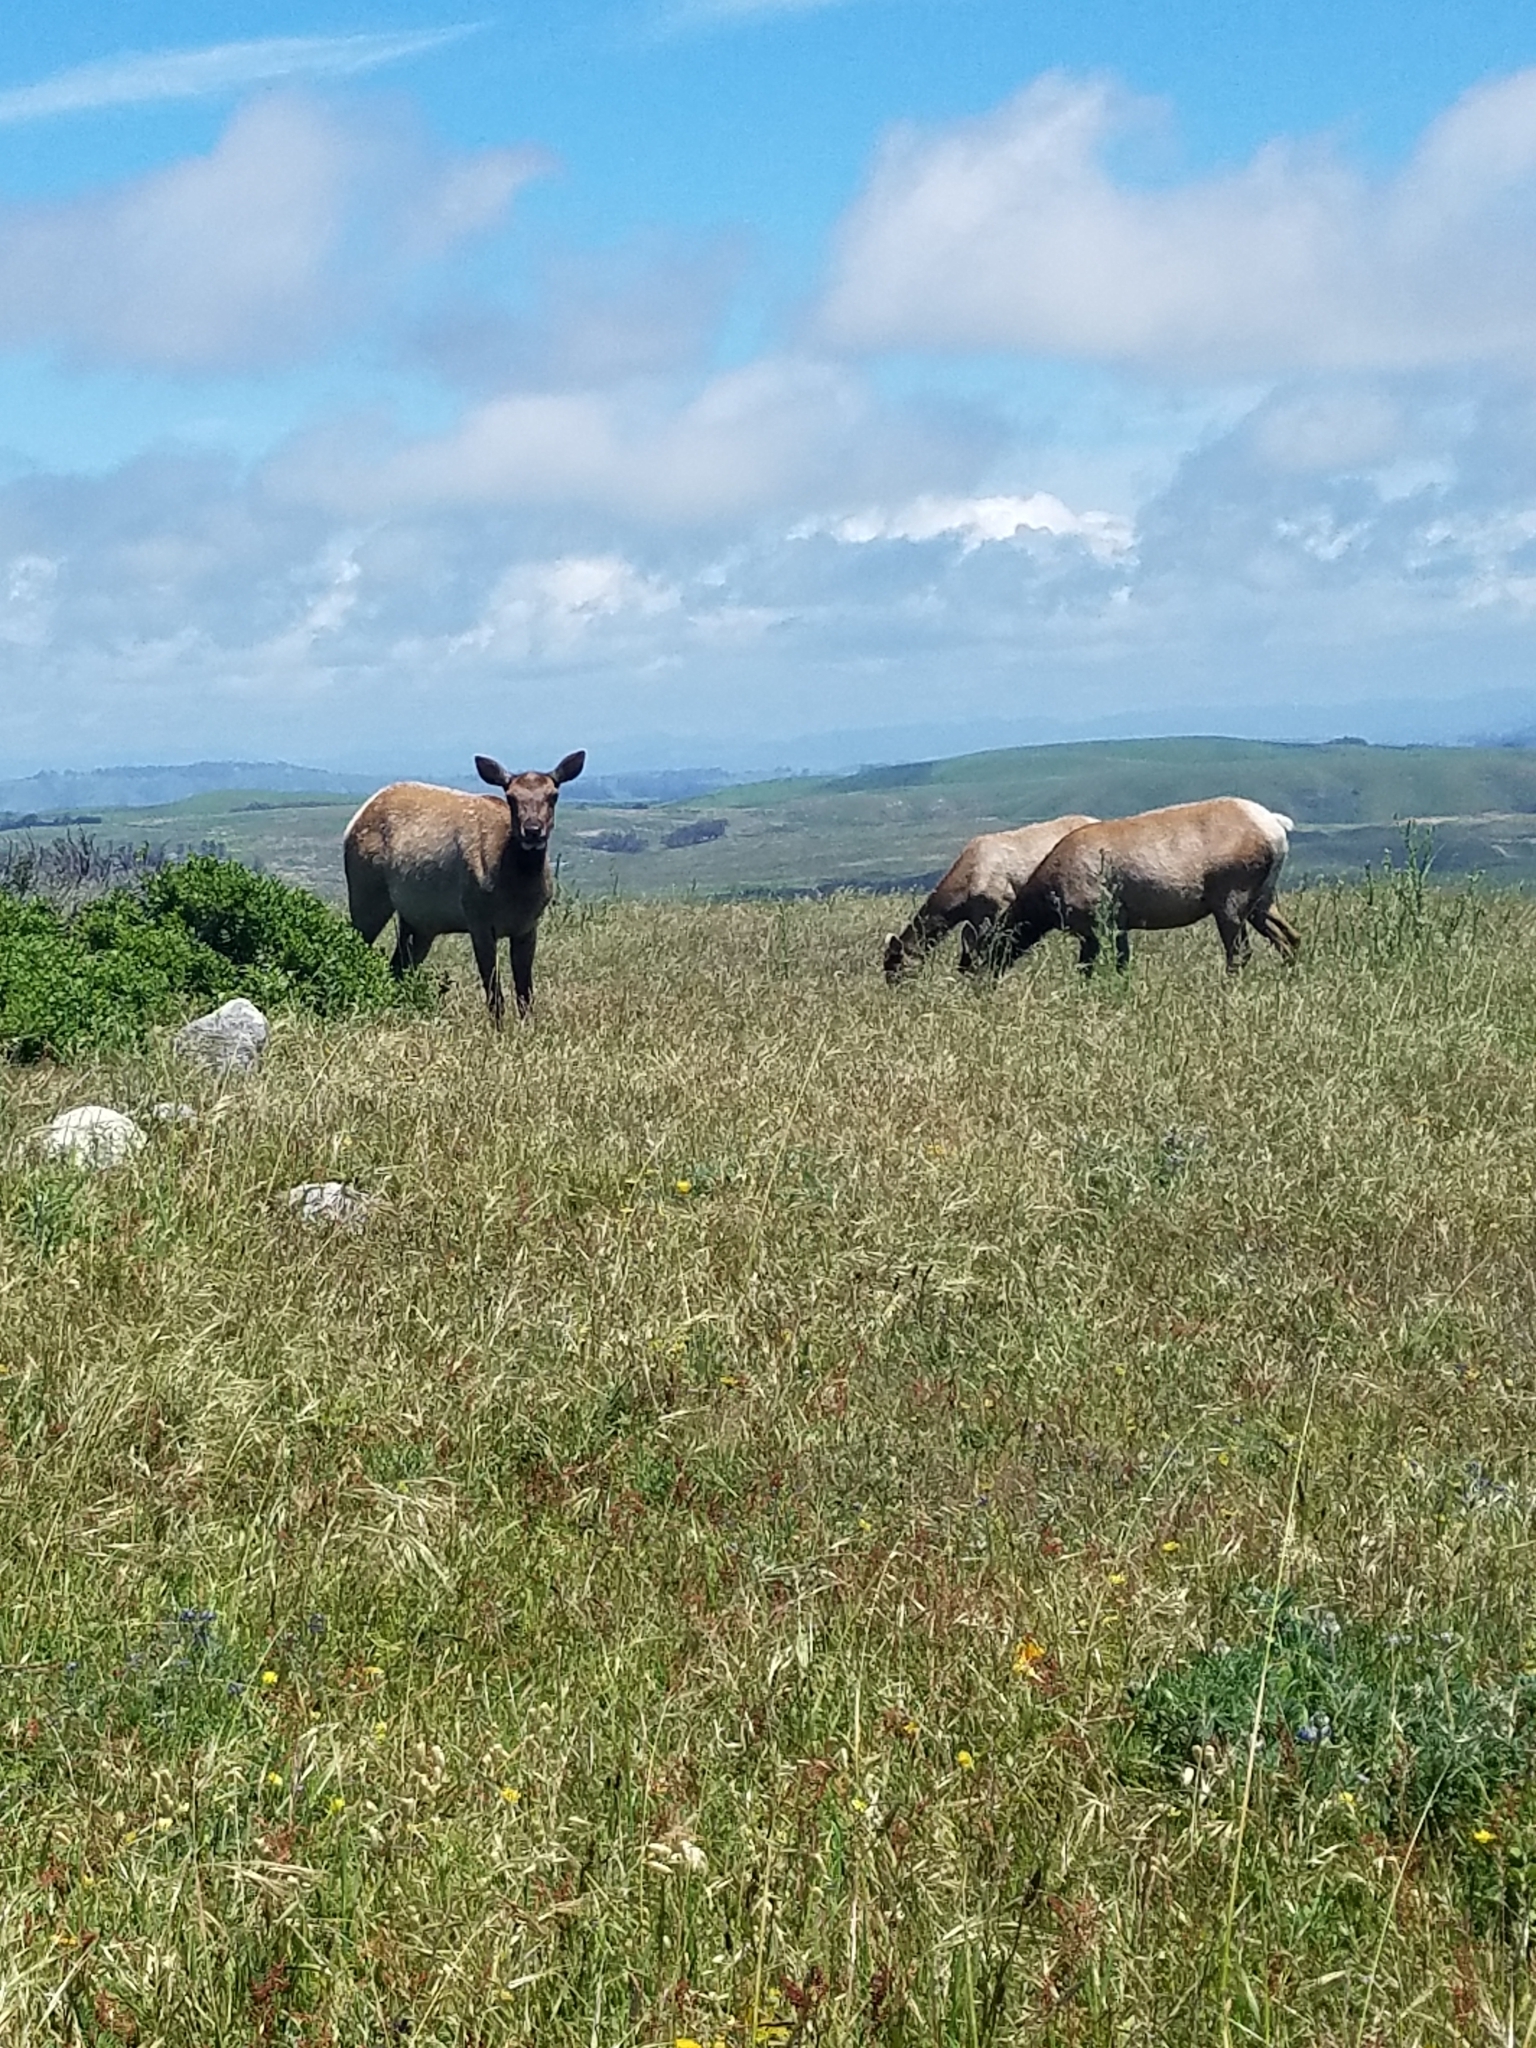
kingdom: Animalia
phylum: Chordata
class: Mammalia
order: Artiodactyla
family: Cervidae
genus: Cervus
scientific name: Cervus elaphus
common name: Red deer
